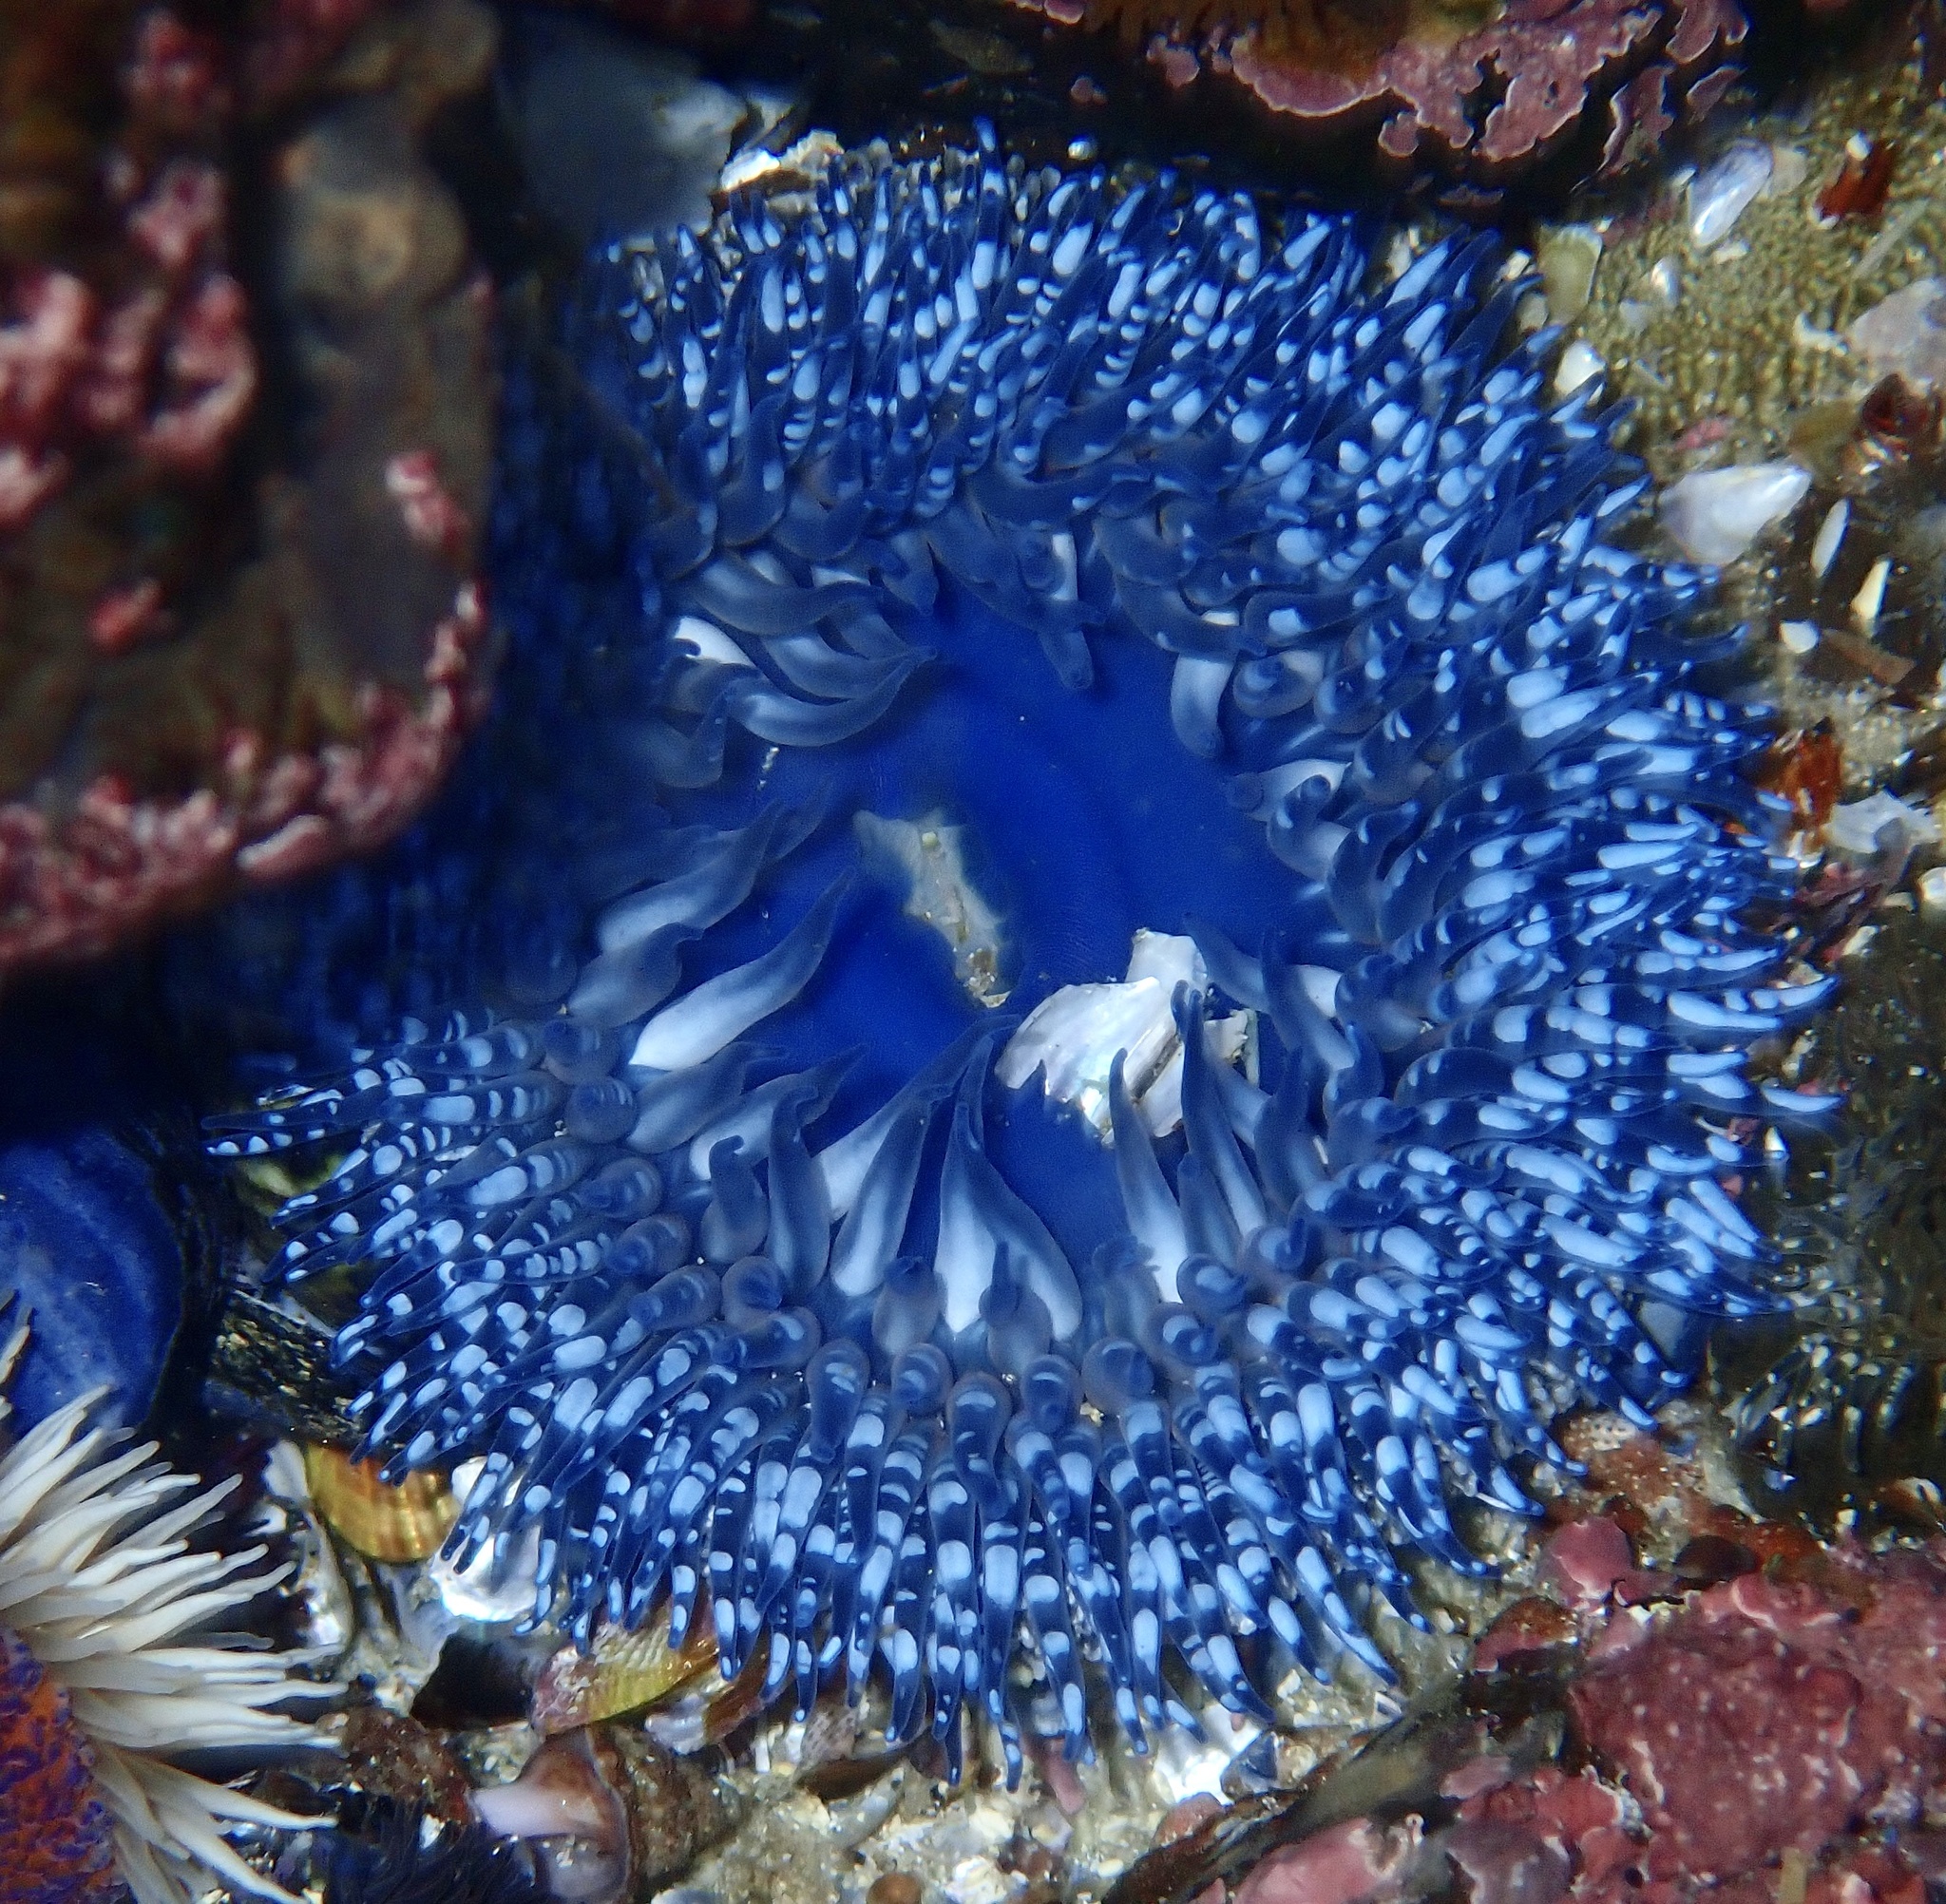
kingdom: Animalia
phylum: Cnidaria
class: Anthozoa
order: Actiniaria
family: Actiniidae
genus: Bunodactis
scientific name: Bunodactis reynaudi
